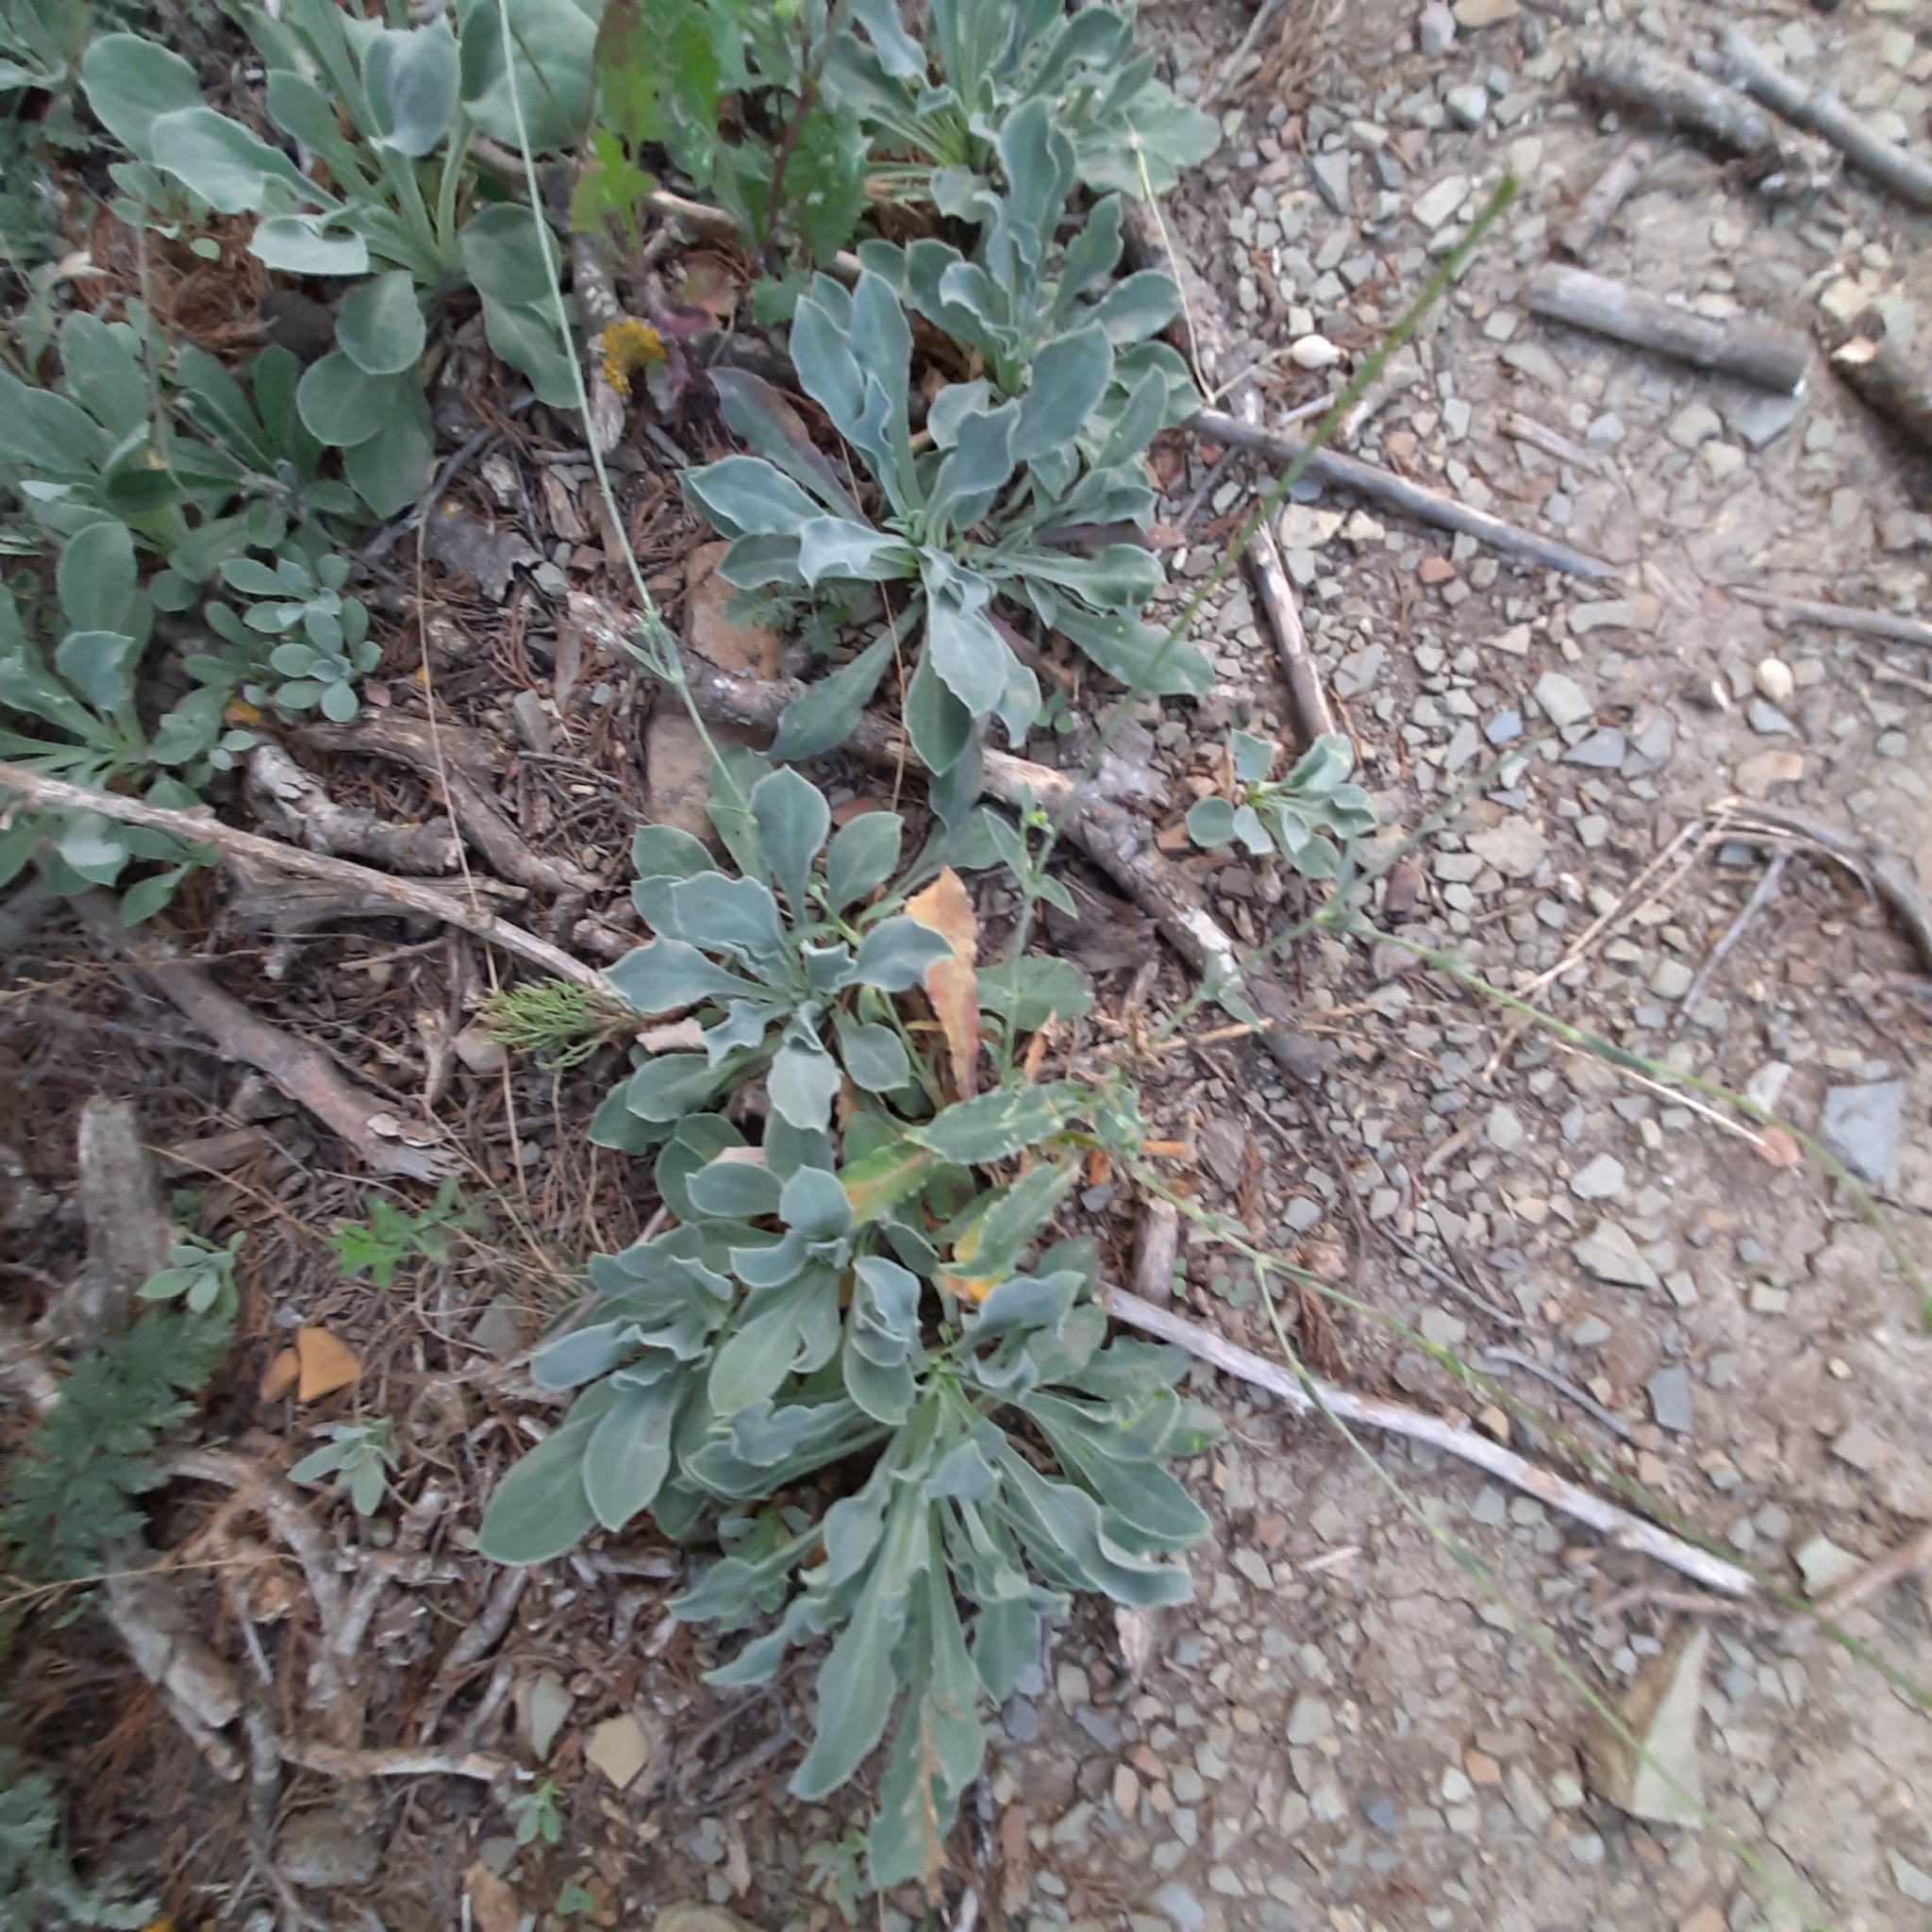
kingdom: Plantae
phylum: Tracheophyta
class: Magnoliopsida
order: Caryophyllales
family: Caryophyllaceae
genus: Silene
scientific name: Silene crispata
